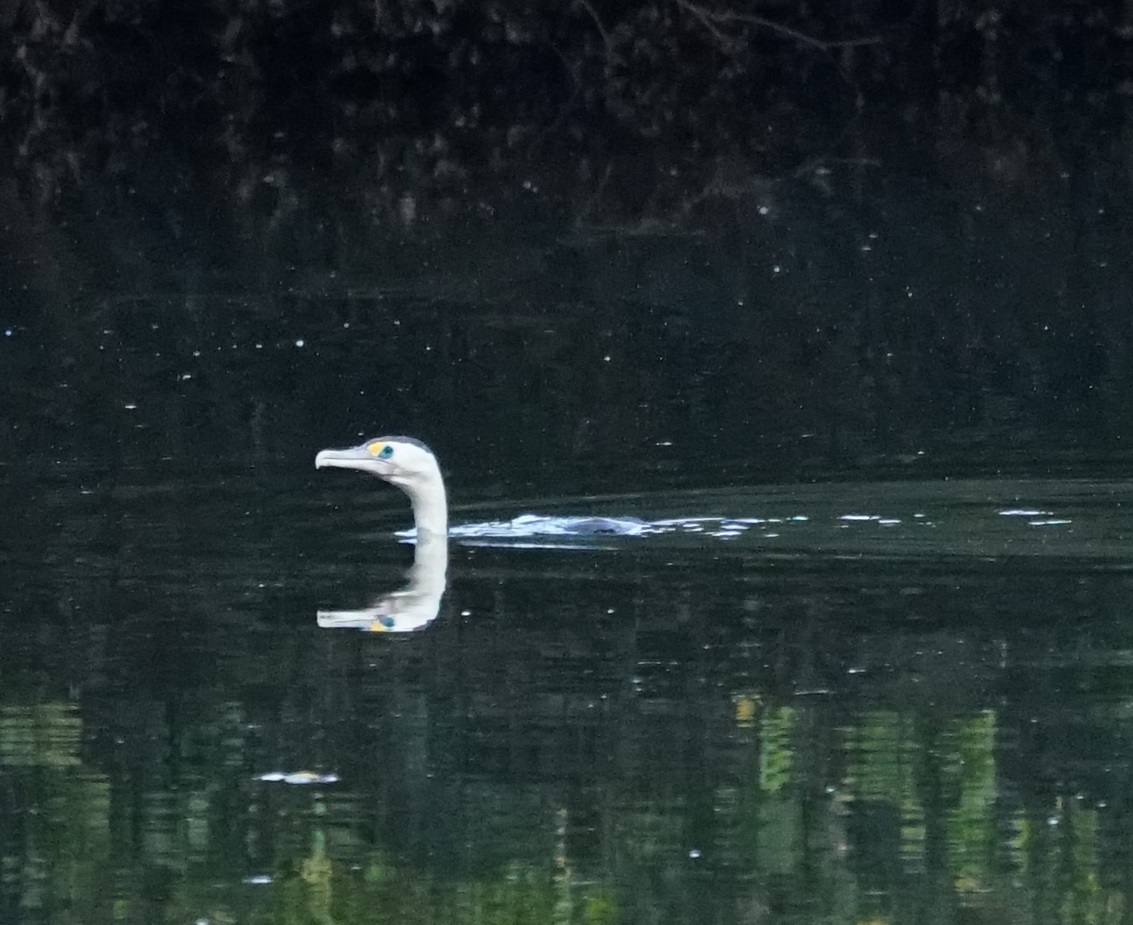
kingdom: Animalia
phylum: Chordata
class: Aves
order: Suliformes
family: Phalacrocoracidae
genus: Phalacrocorax
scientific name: Phalacrocorax varius
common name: Pied cormorant
